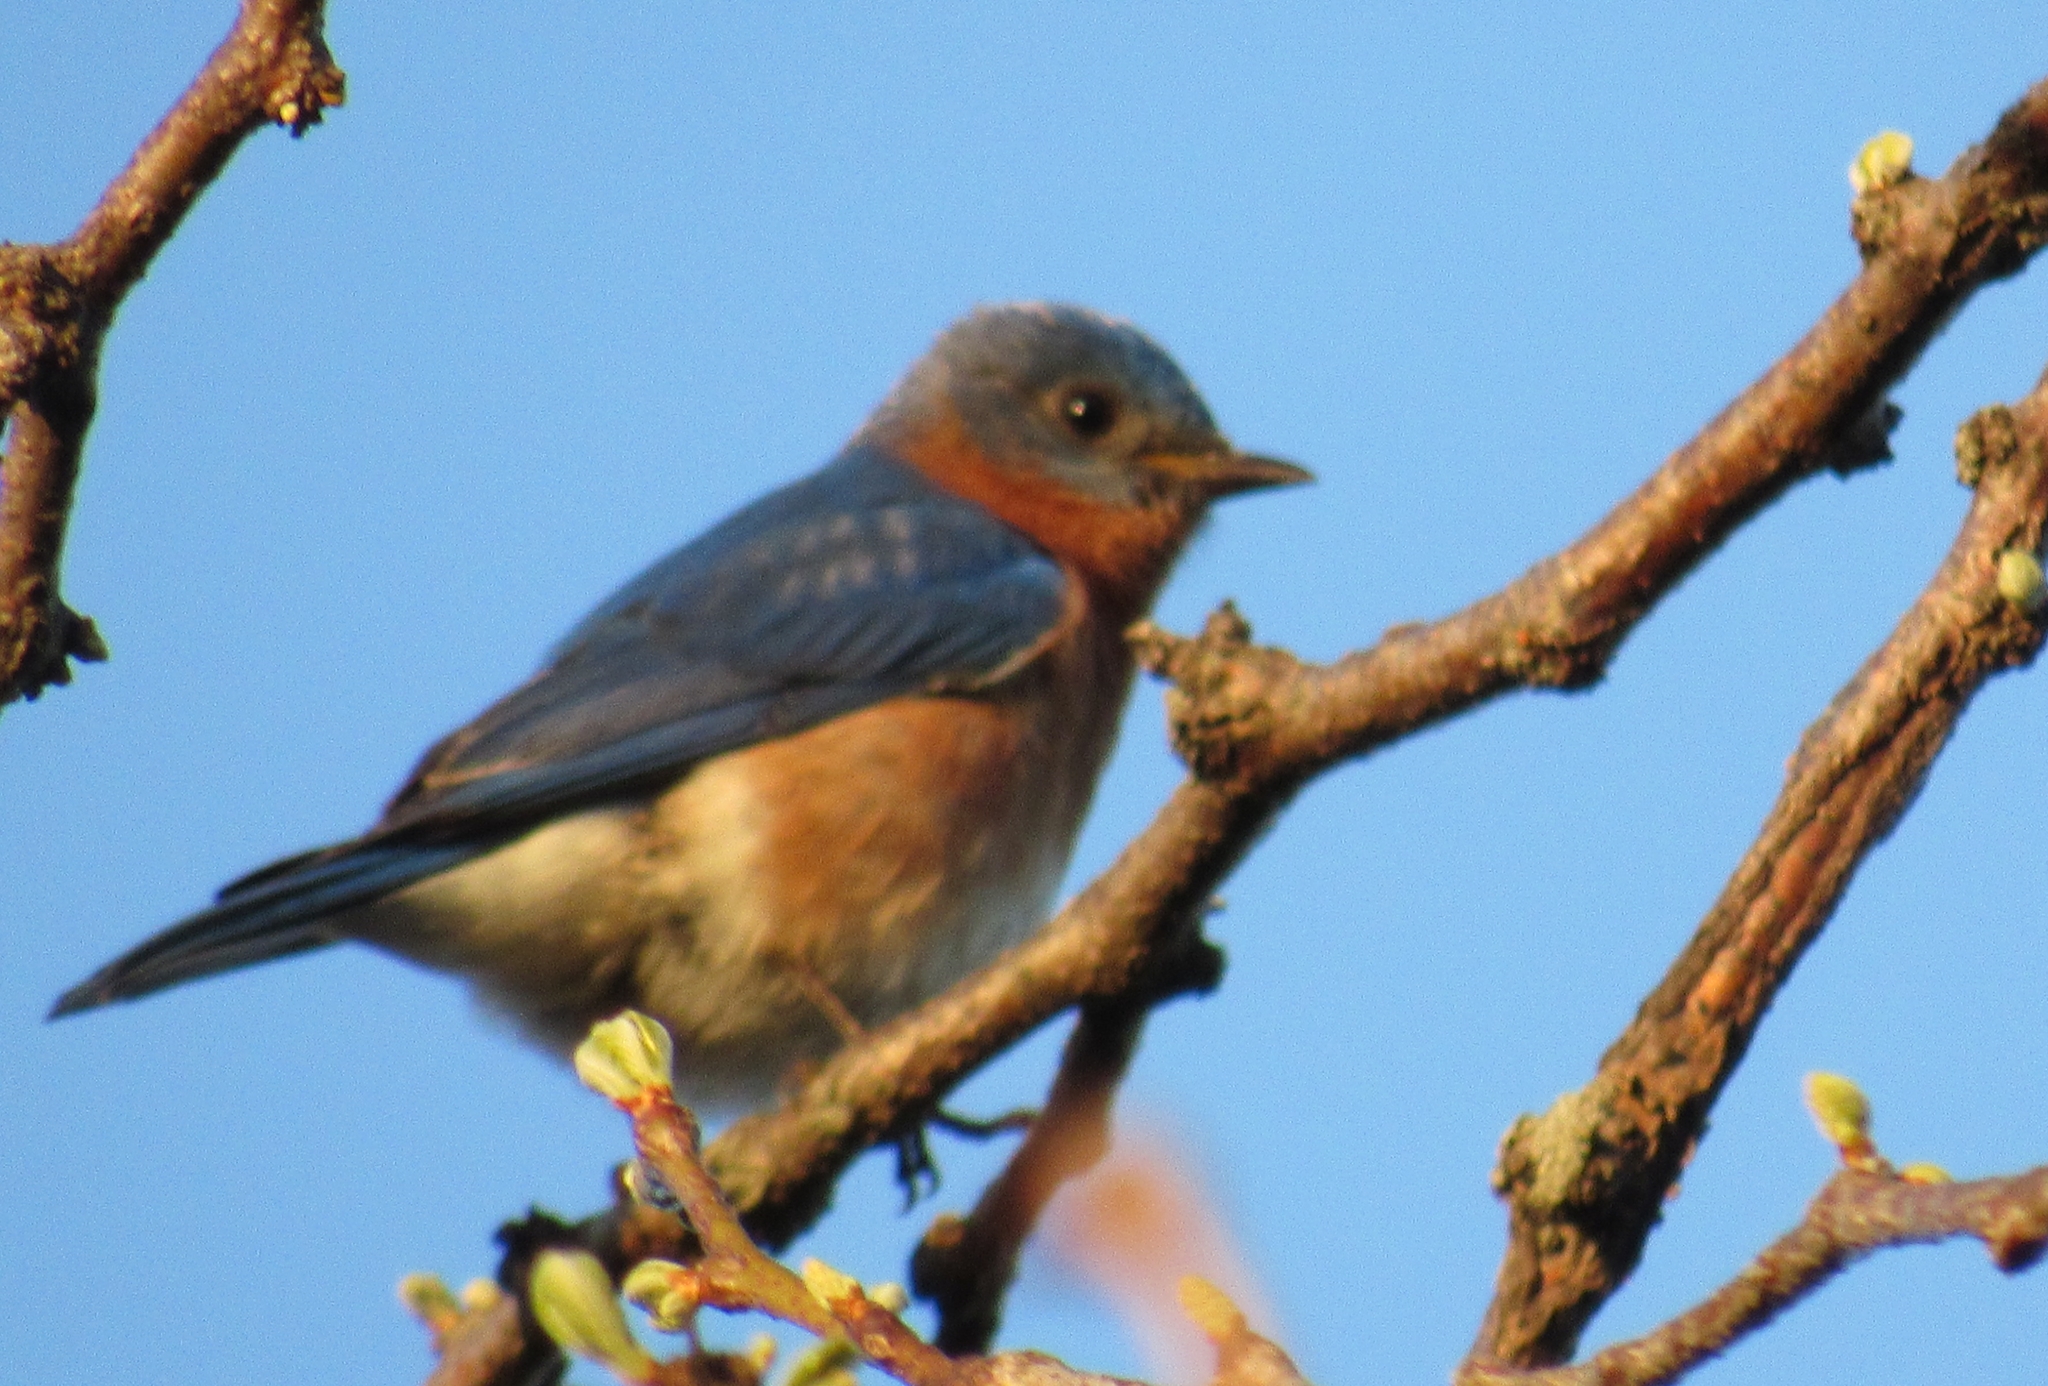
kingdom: Animalia
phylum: Chordata
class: Aves
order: Passeriformes
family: Turdidae
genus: Sialia
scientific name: Sialia sialis
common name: Eastern bluebird
